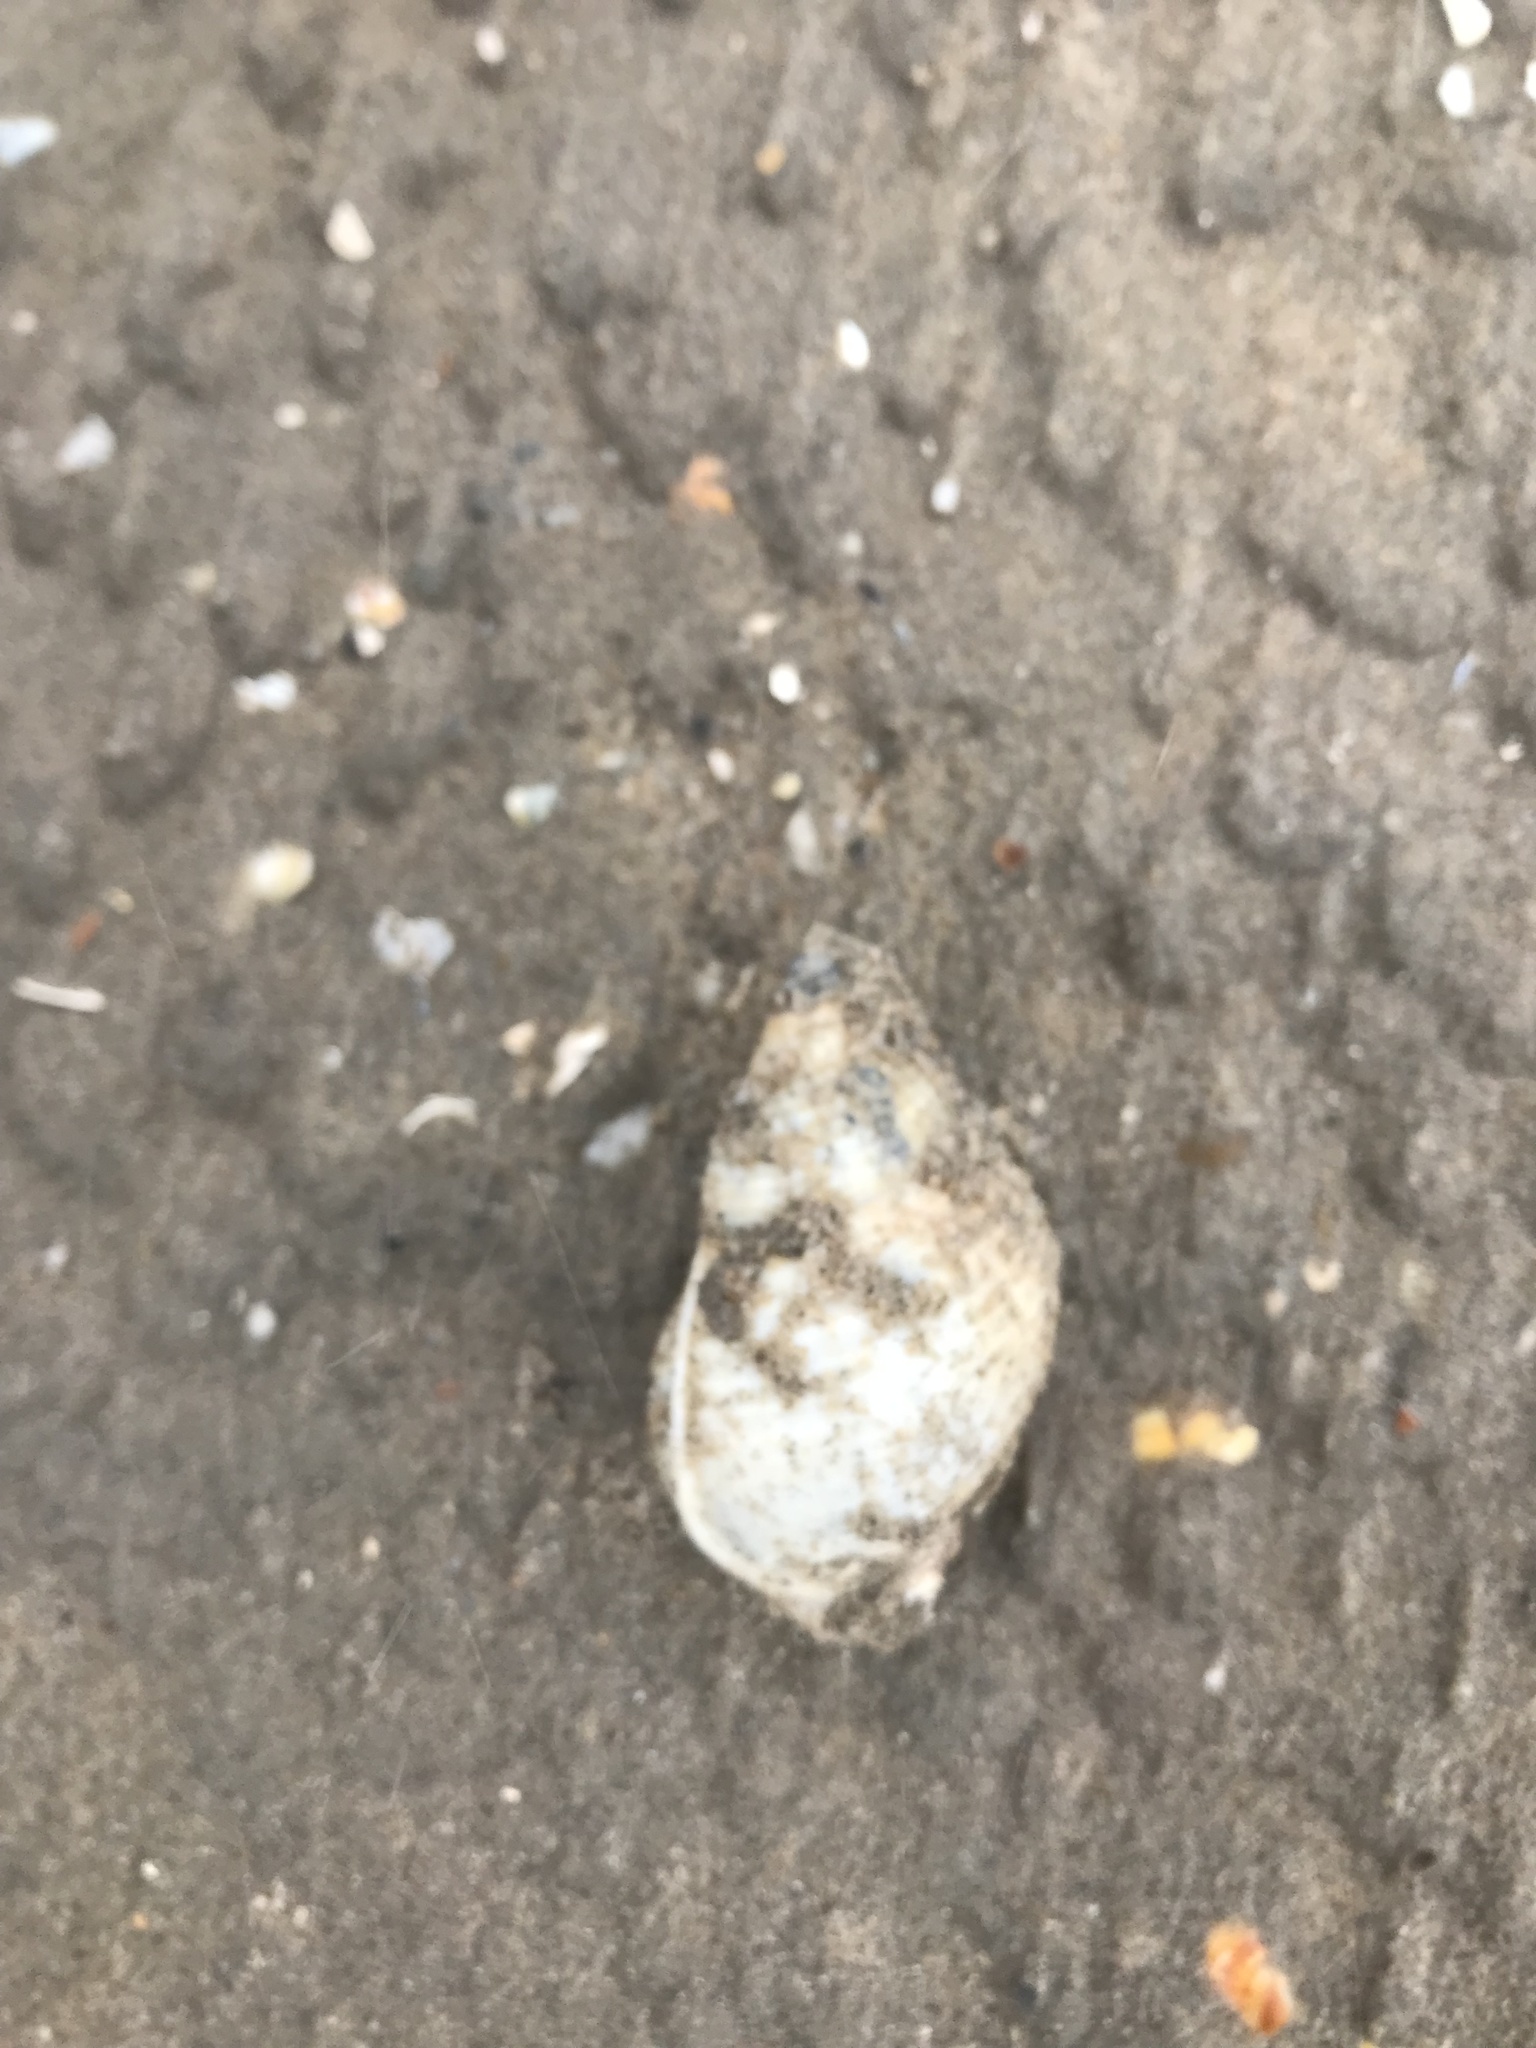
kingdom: Animalia
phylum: Mollusca
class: Gastropoda
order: Neogastropoda
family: Buccinidae
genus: Buccinum
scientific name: Buccinum undatum
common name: Common whelk
